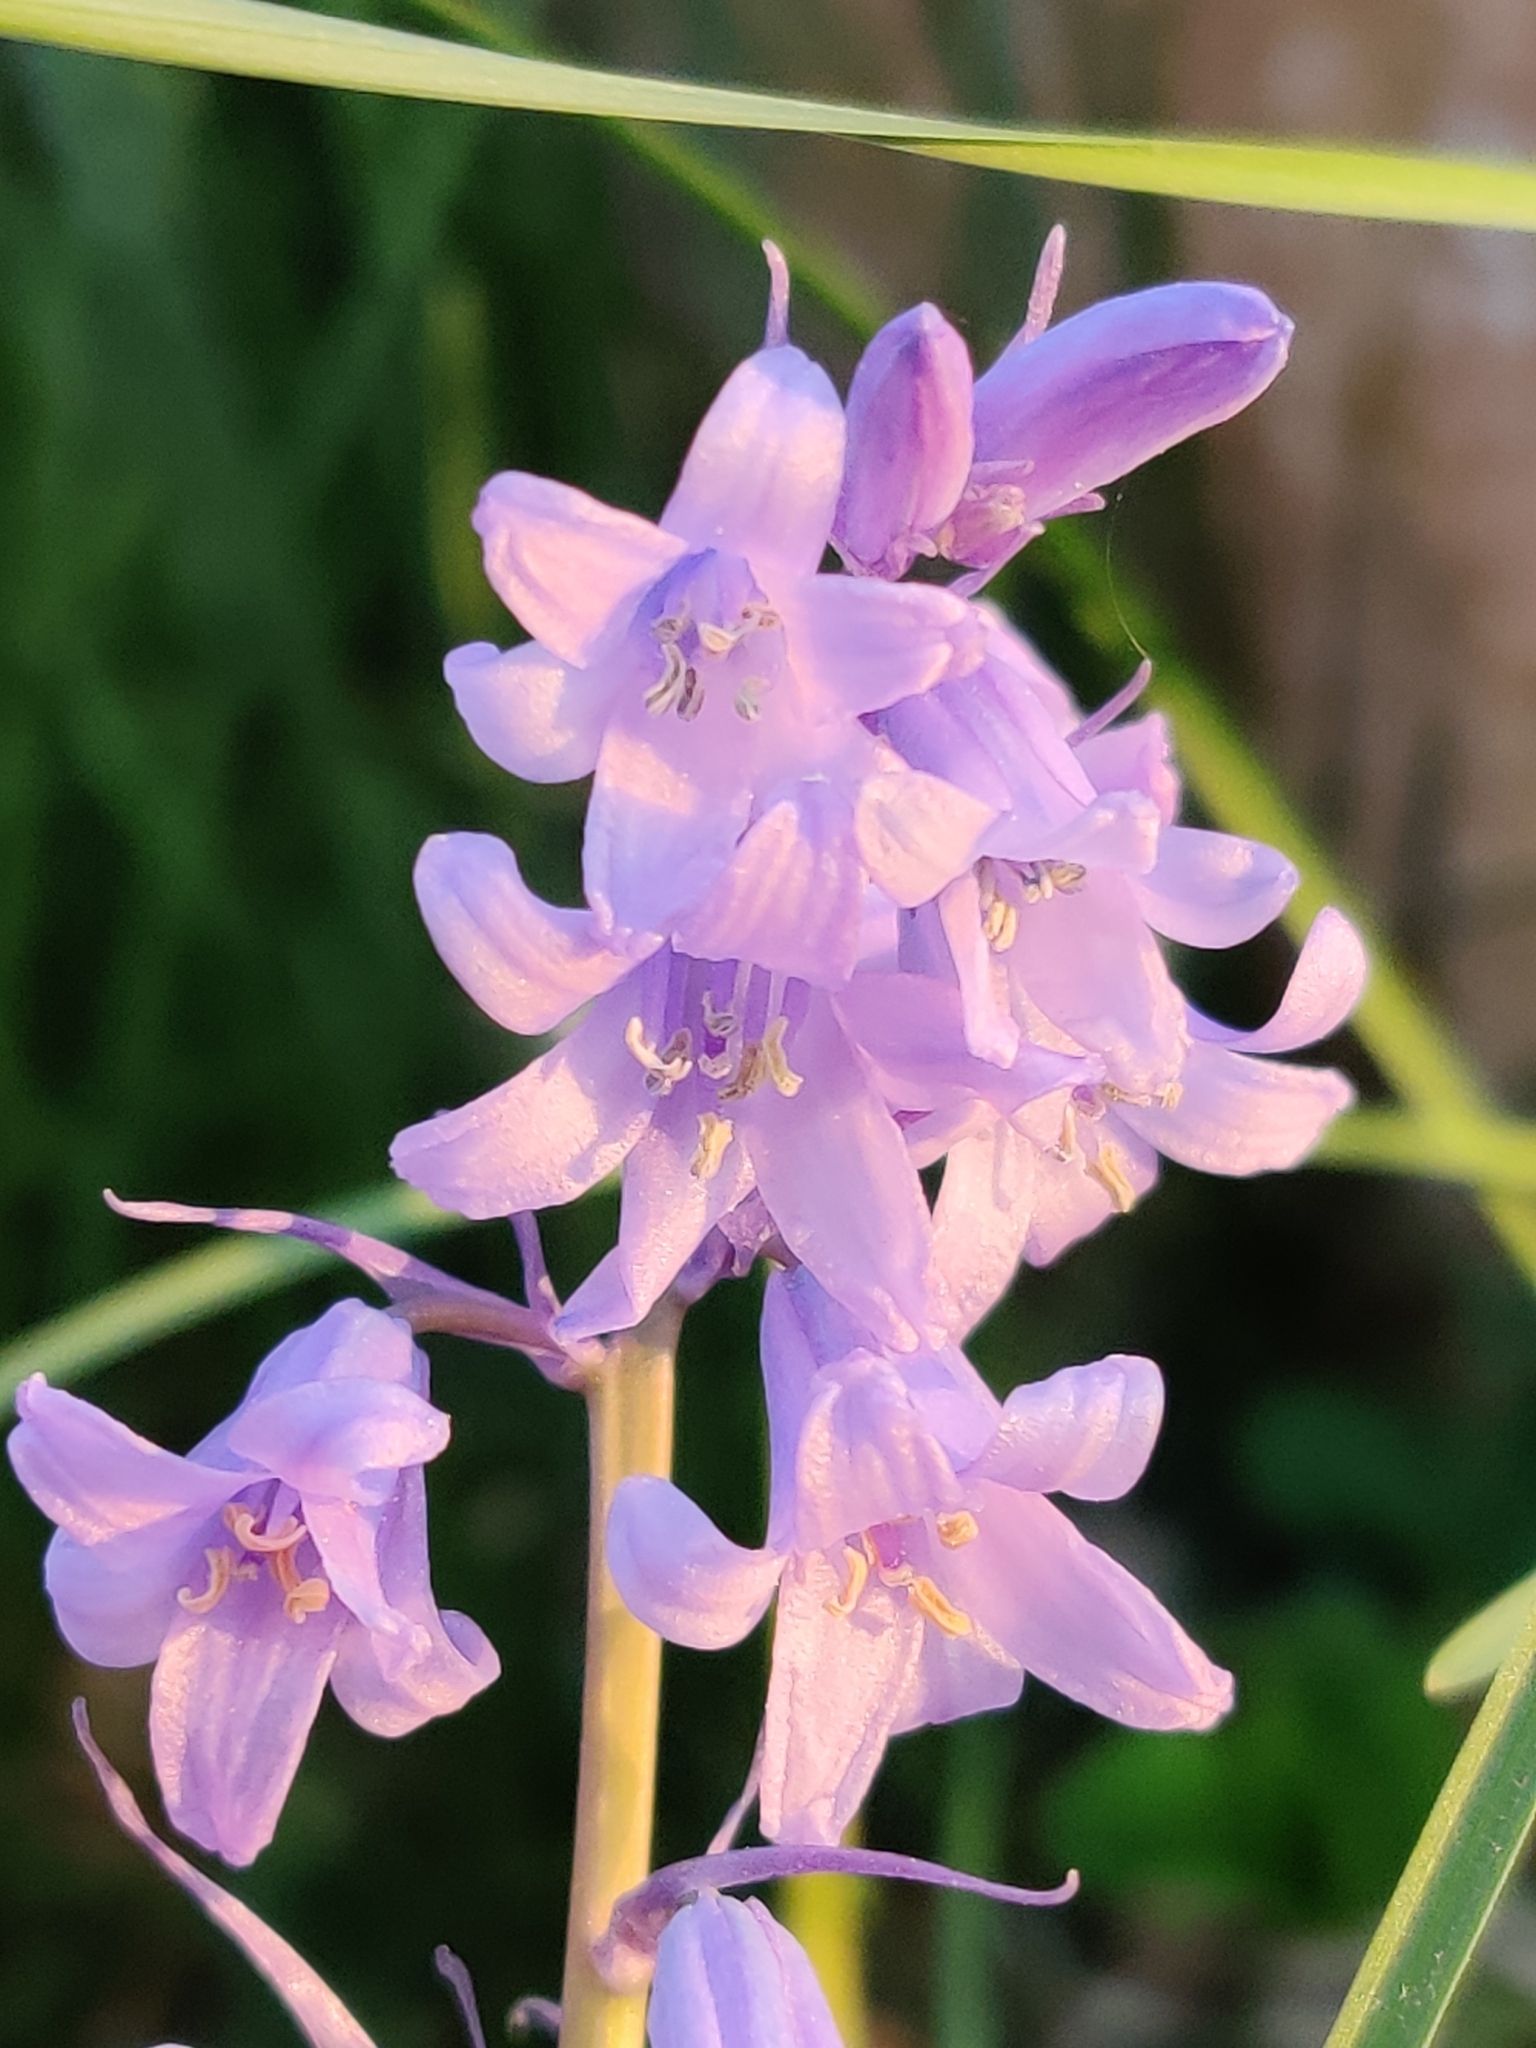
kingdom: Plantae
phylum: Tracheophyta
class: Liliopsida
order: Asparagales
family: Asparagaceae
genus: Hyacinthoides
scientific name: Hyacinthoides hispanica
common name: Spanish bluebell
